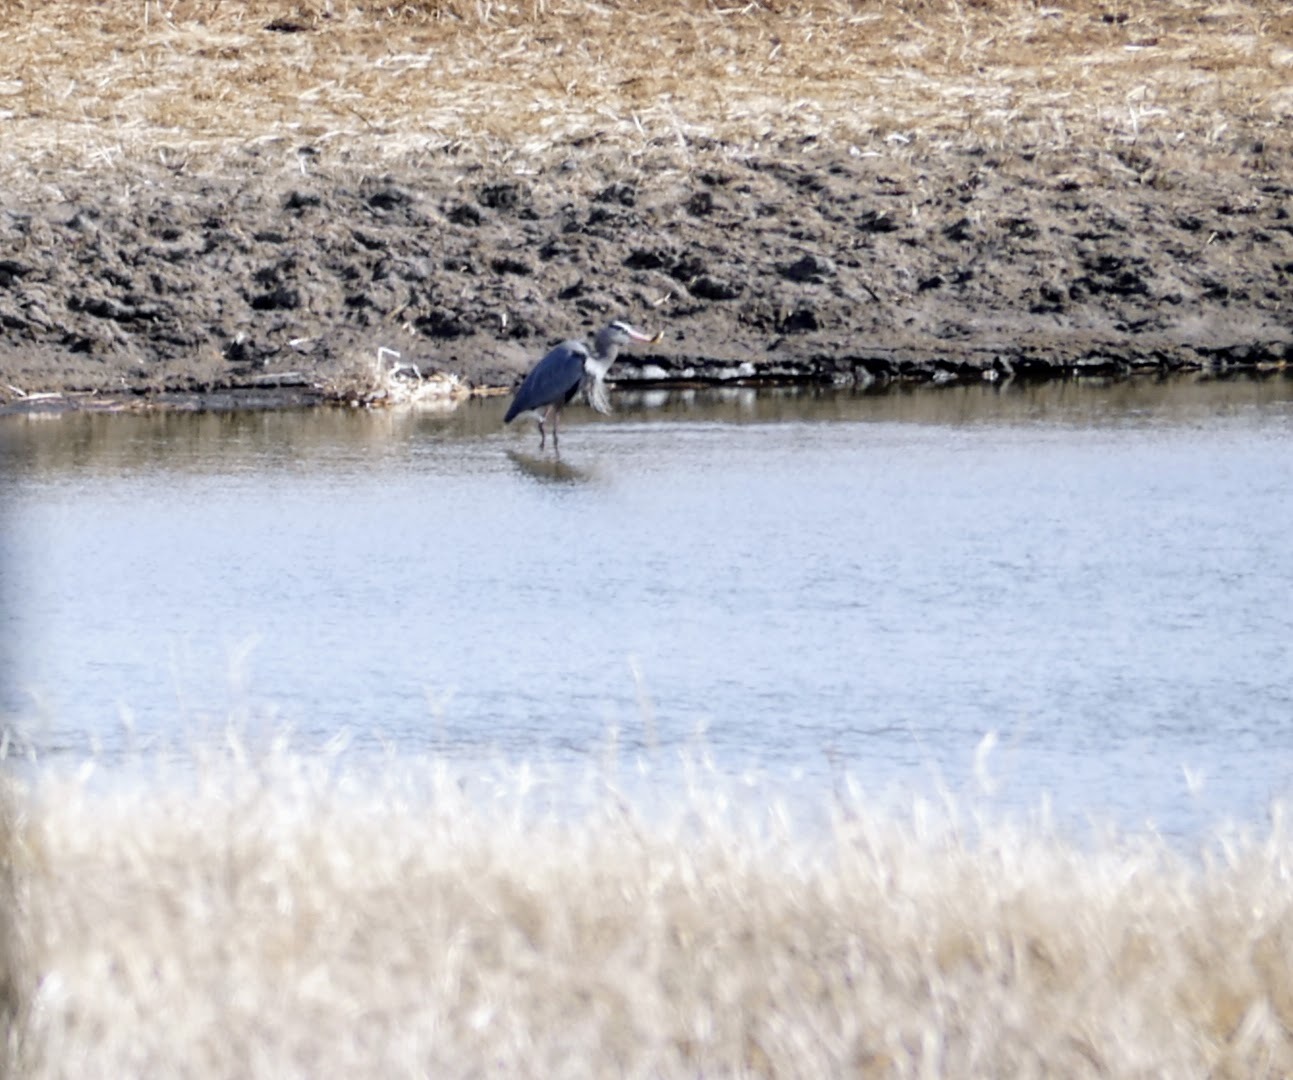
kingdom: Animalia
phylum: Chordata
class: Aves
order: Pelecaniformes
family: Ardeidae
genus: Ardea
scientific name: Ardea herodias
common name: Great blue heron
